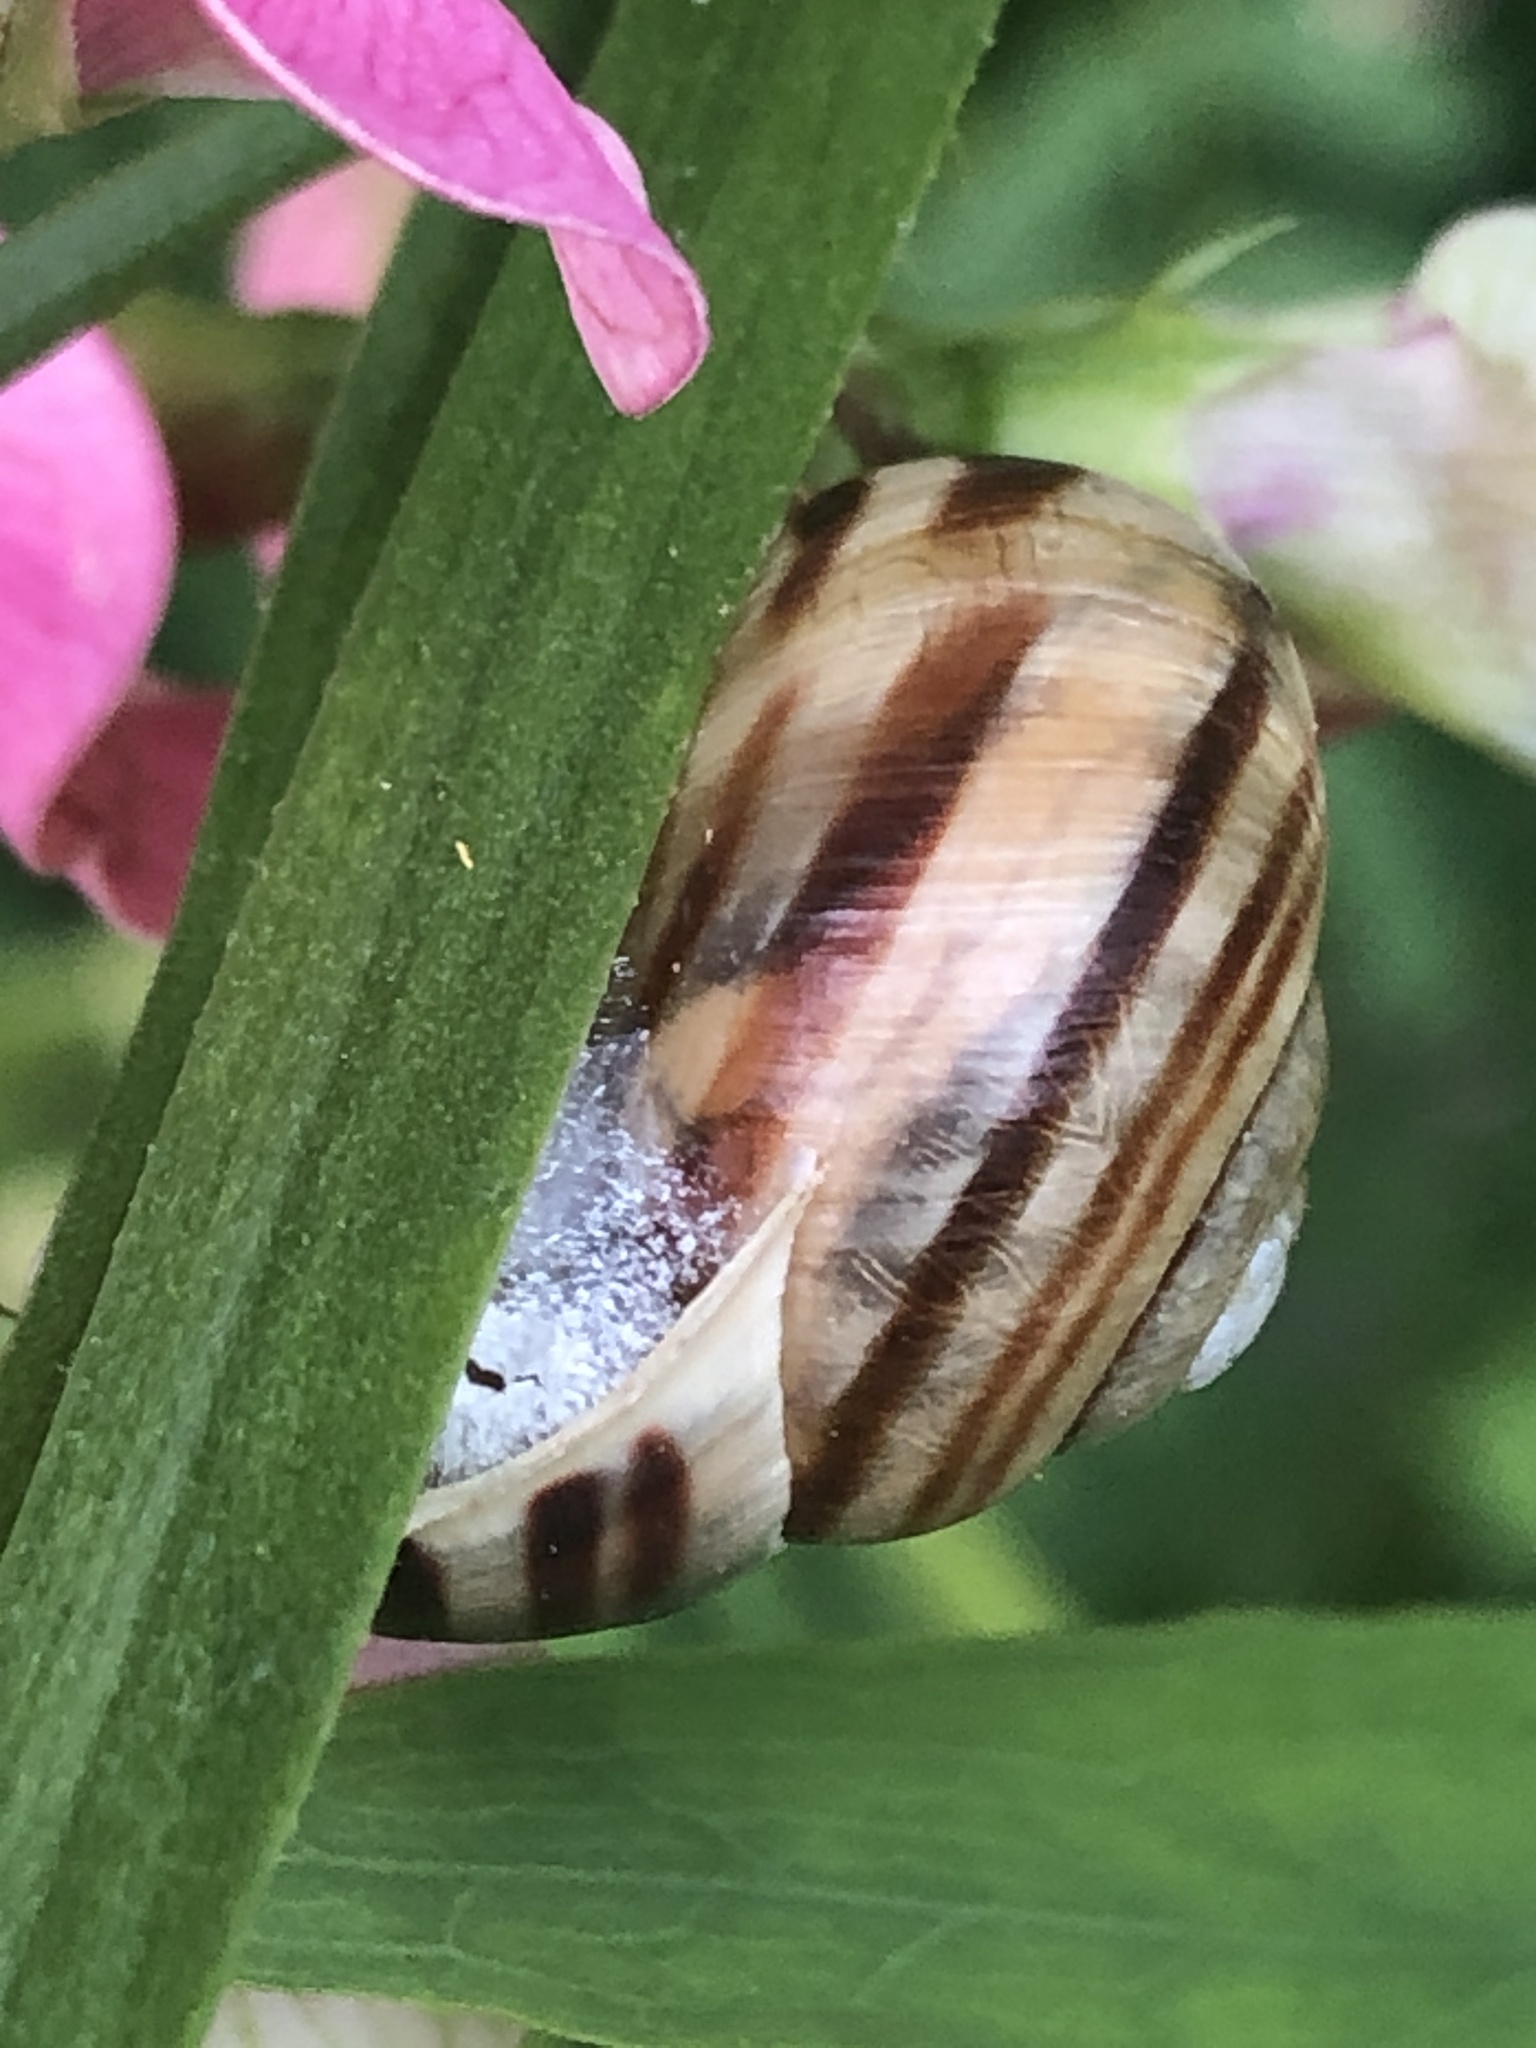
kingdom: Animalia
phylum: Mollusca
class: Gastropoda
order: Stylommatophora
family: Helicidae
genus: Cepaea
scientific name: Cepaea hortensis
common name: White-lip gardensnail
